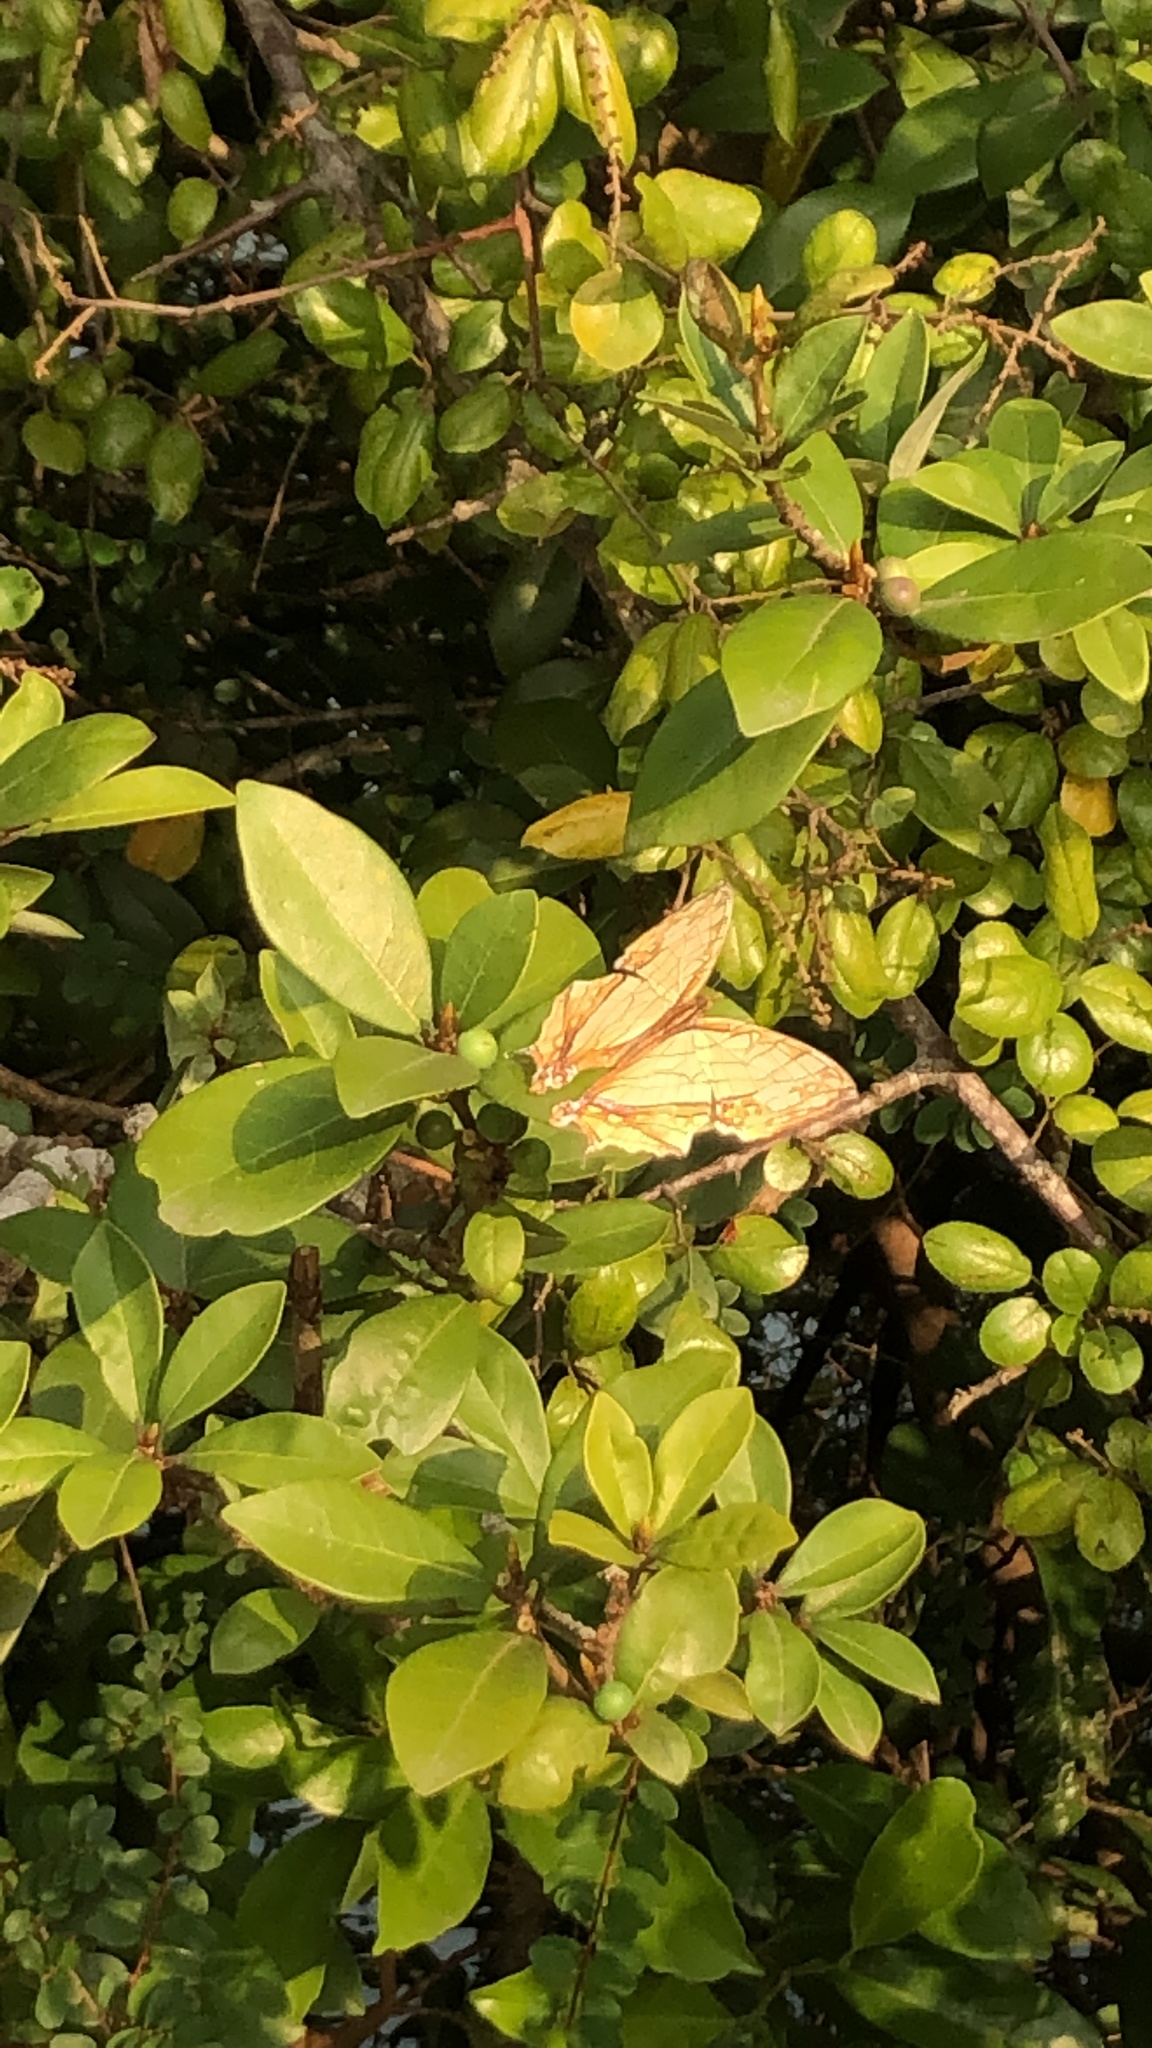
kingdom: Animalia
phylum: Arthropoda
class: Insecta
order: Lepidoptera
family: Nymphalidae
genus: Cyrestis
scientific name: Cyrestis thyodamas
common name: Common mapwing
